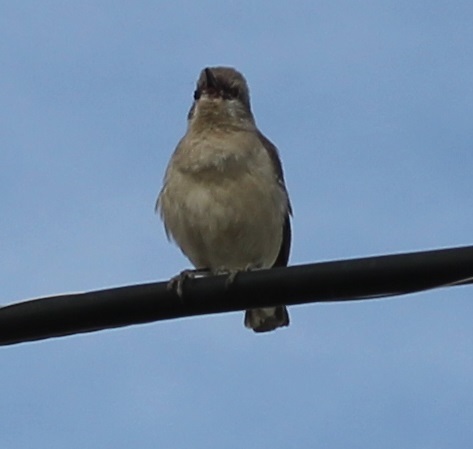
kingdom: Animalia
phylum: Chordata
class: Aves
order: Passeriformes
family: Mimidae
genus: Mimus
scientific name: Mimus polyglottos
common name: Northern mockingbird
